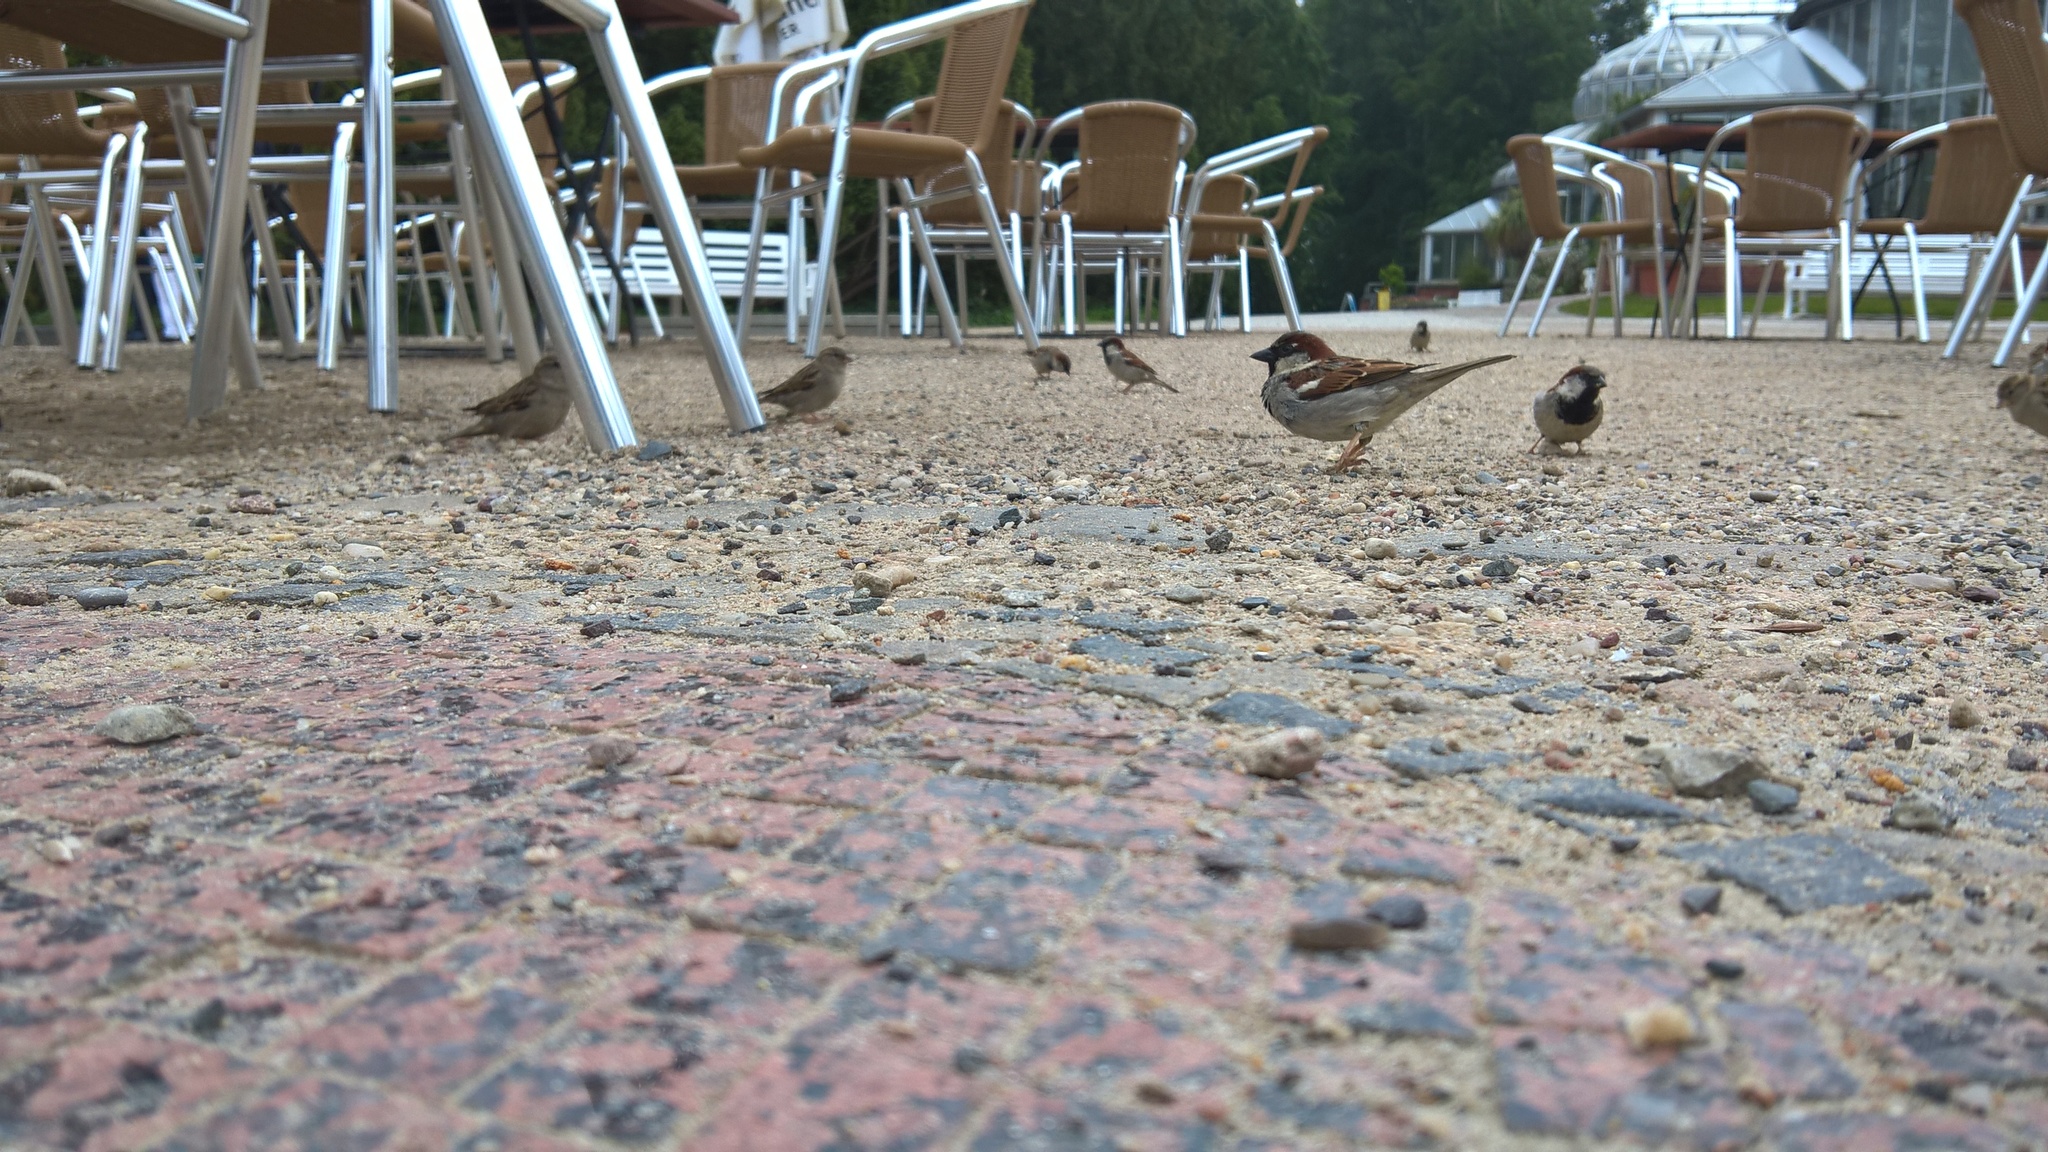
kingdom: Animalia
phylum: Chordata
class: Aves
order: Passeriformes
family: Passeridae
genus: Passer
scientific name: Passer domesticus
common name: House sparrow
